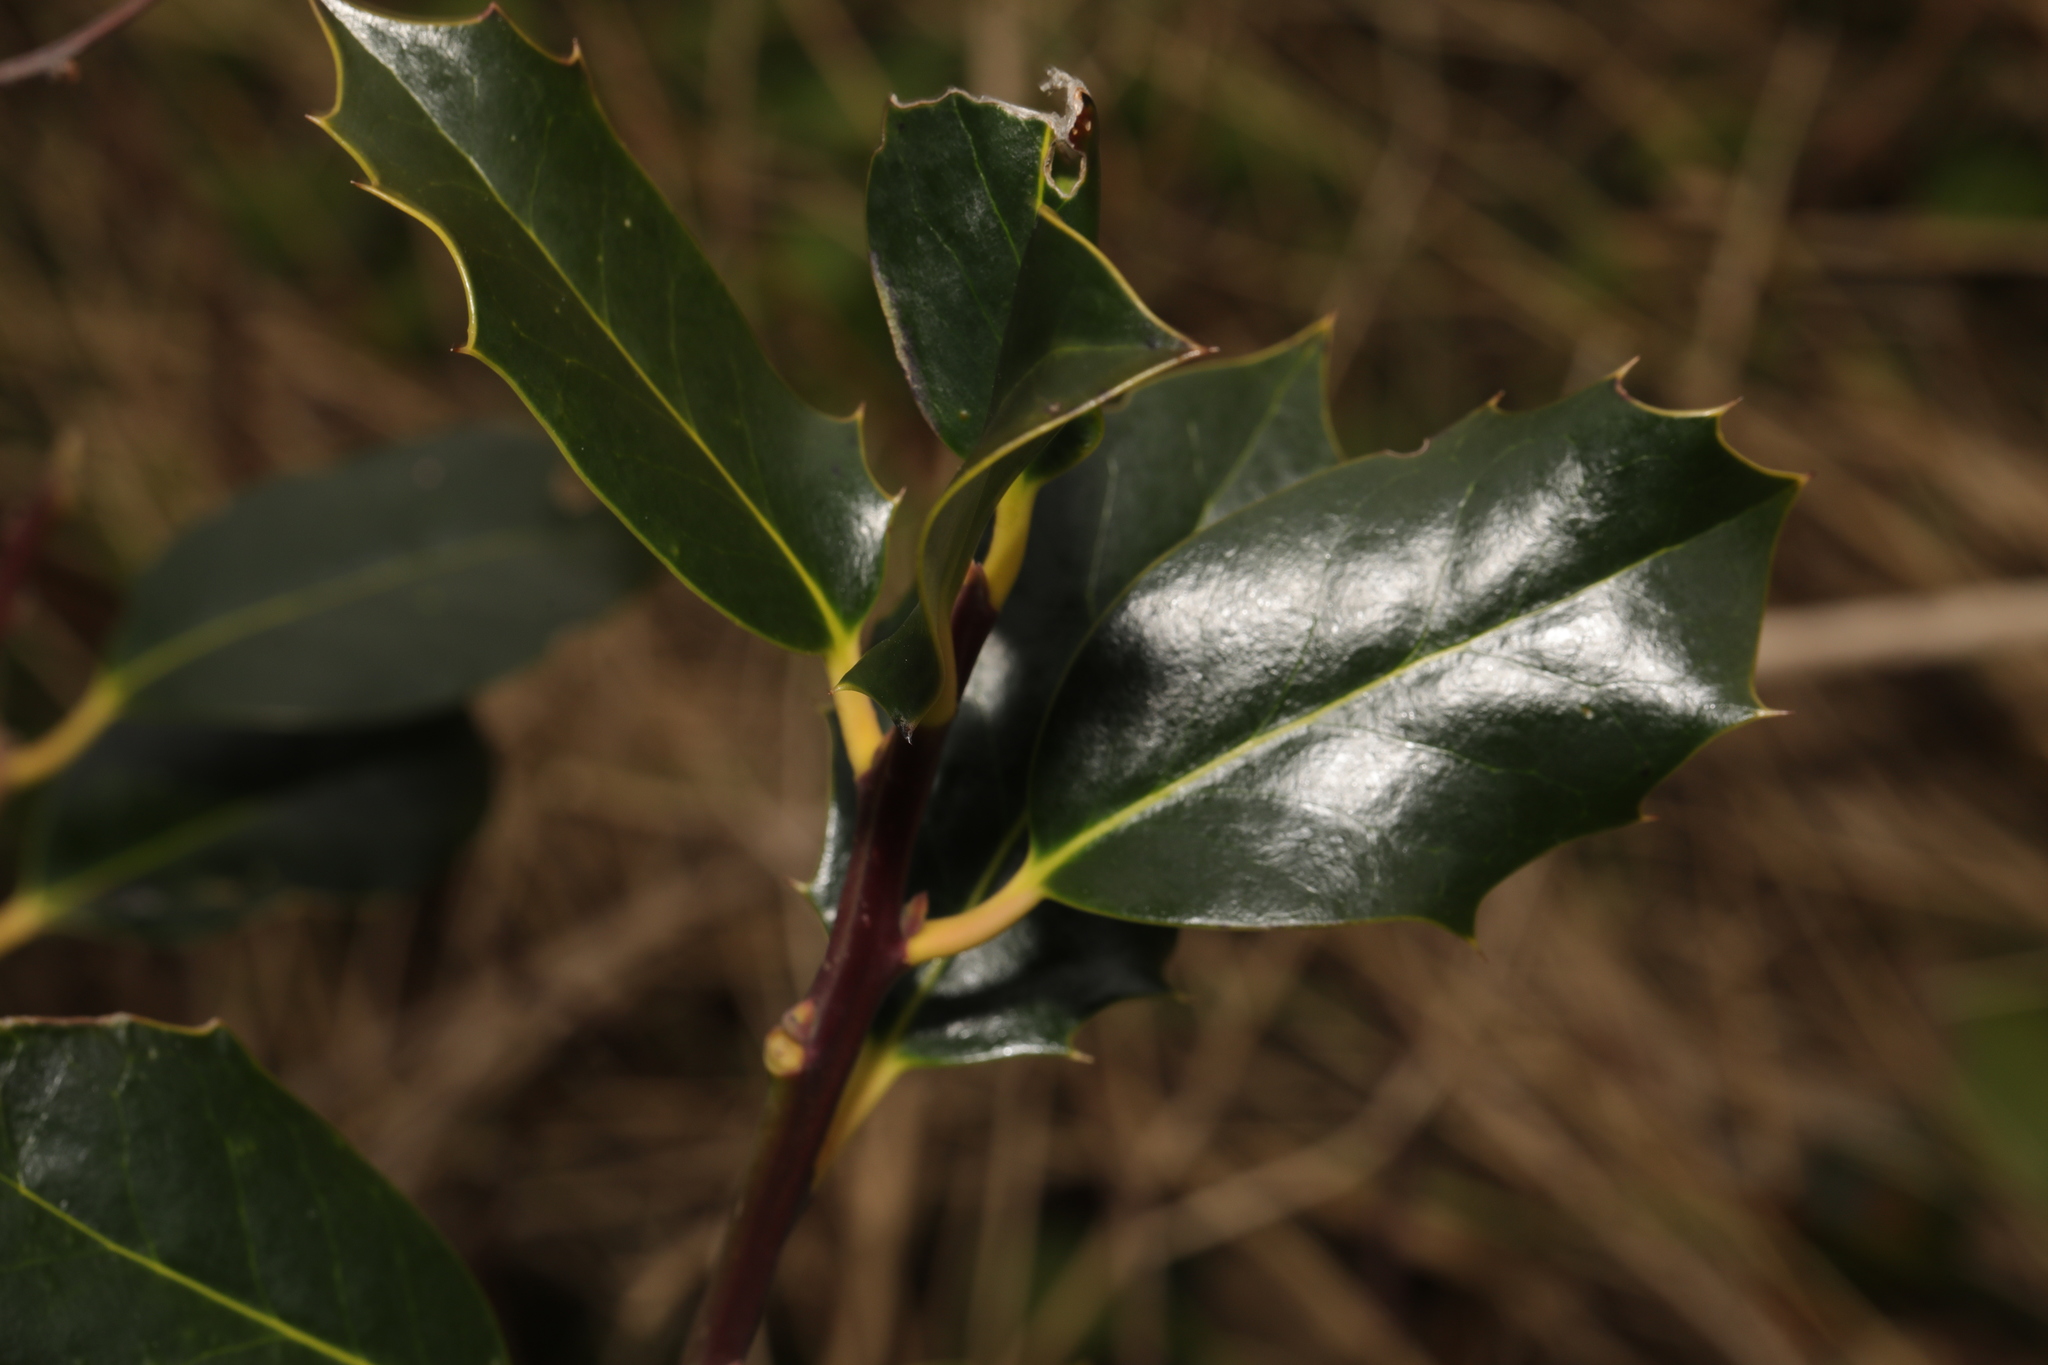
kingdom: Plantae
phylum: Tracheophyta
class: Magnoliopsida
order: Aquifoliales
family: Aquifoliaceae
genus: Ilex
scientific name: Ilex aquifolium
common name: English holly
